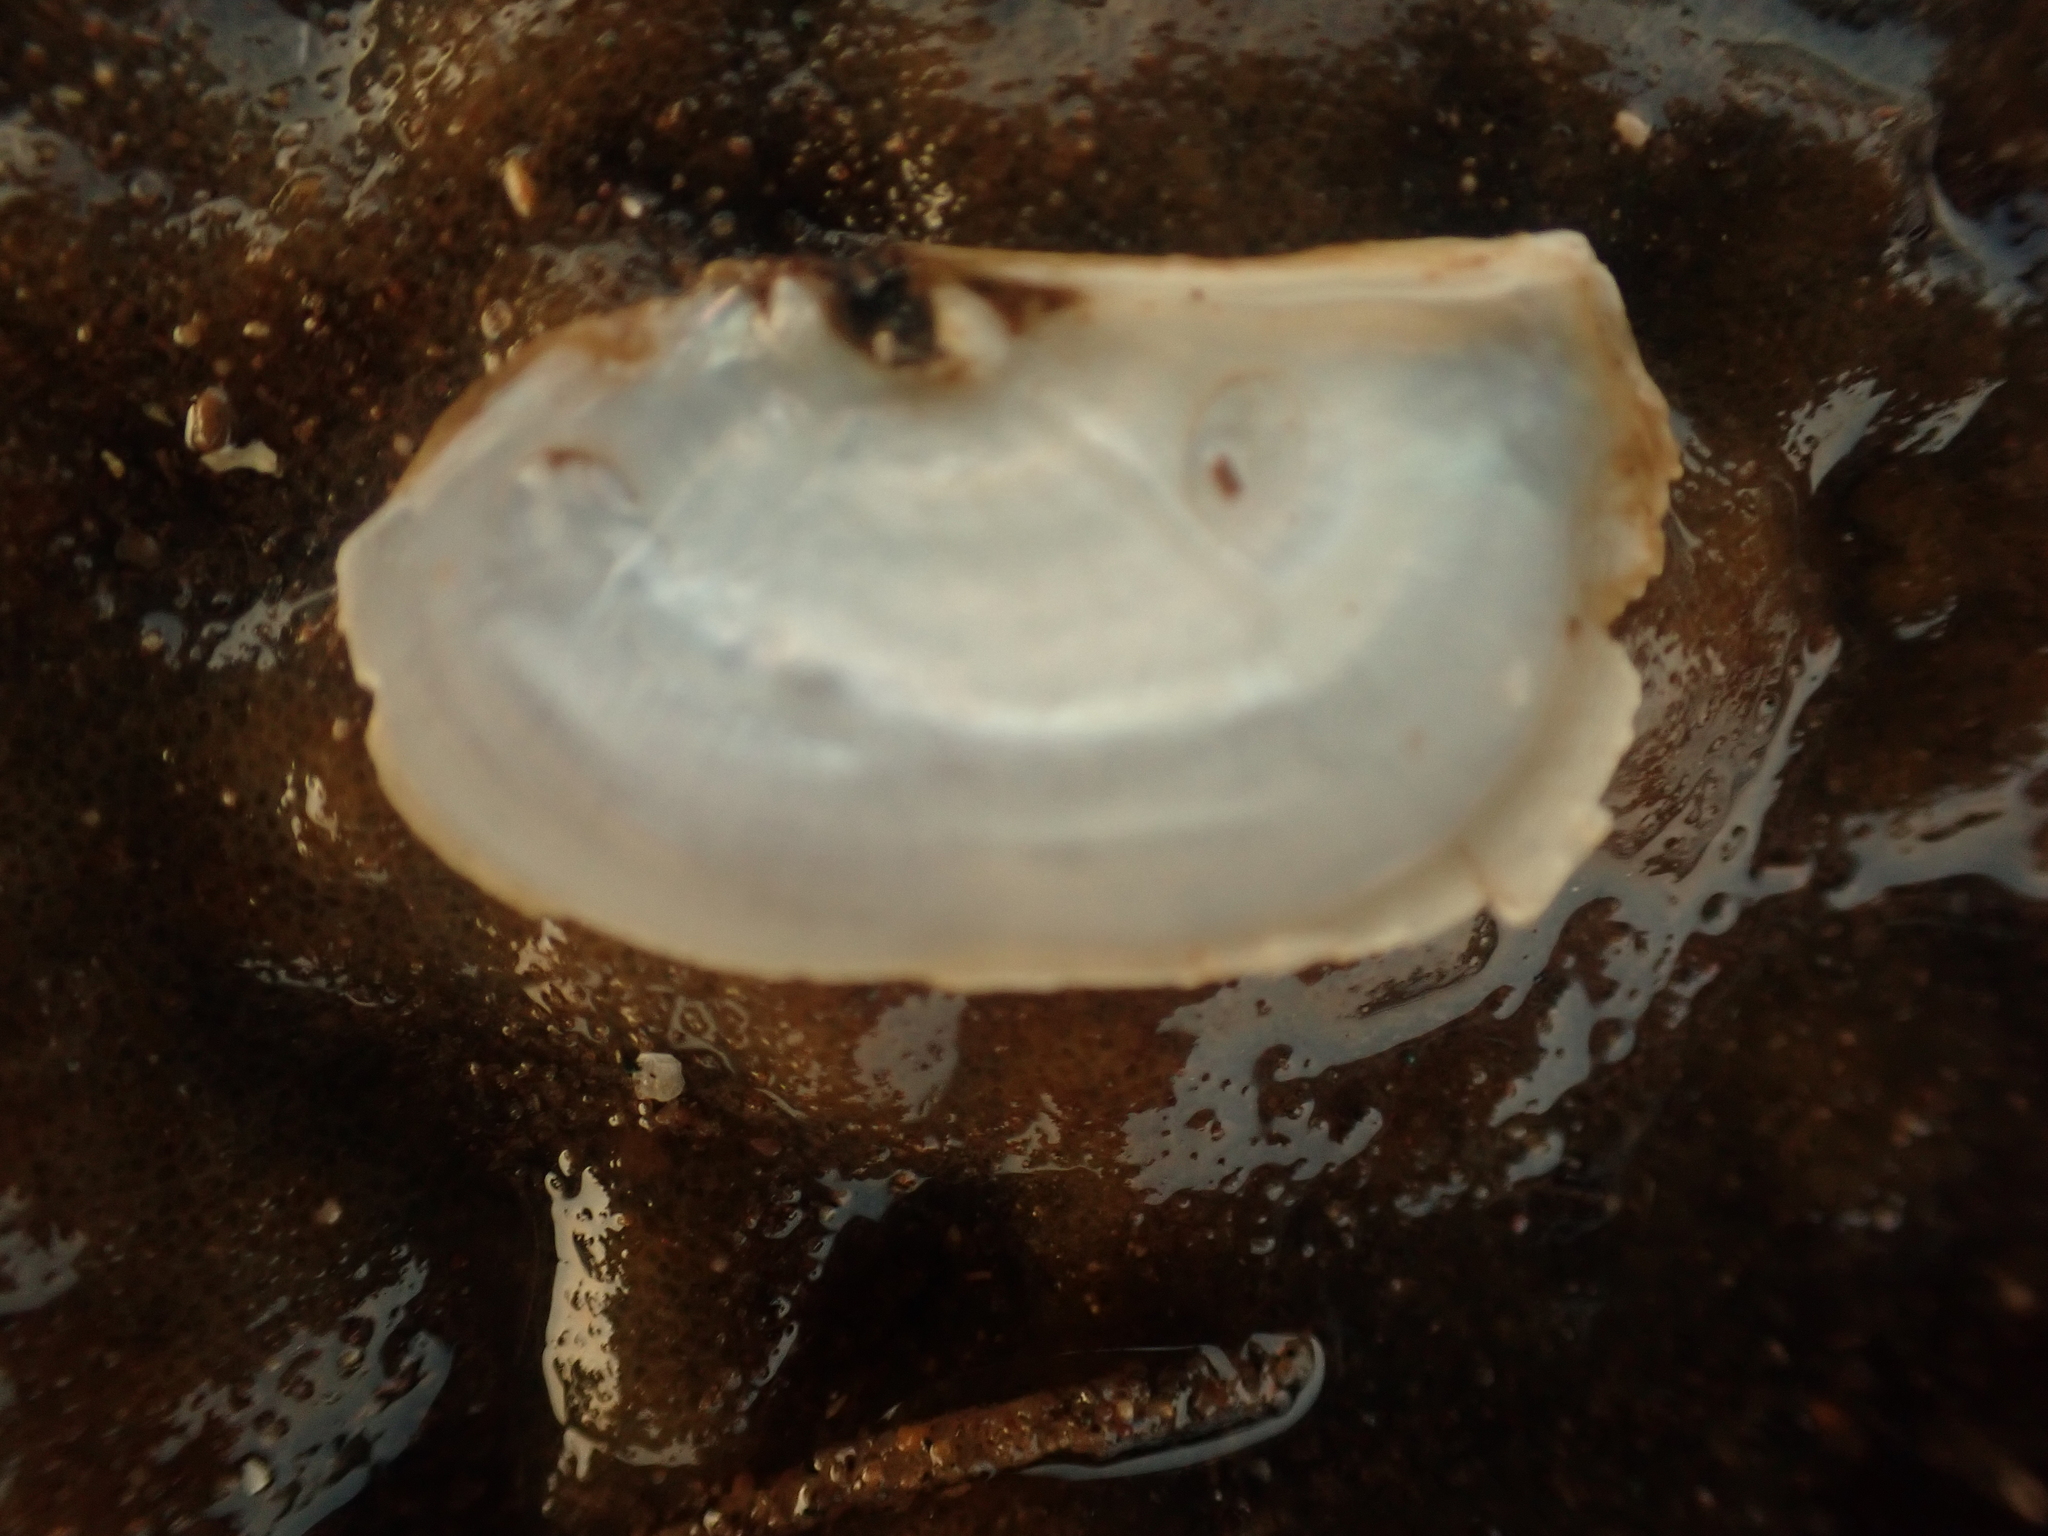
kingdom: Animalia
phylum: Mollusca
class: Bivalvia
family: Pandoridae
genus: Pandora
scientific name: Pandora gouldiana
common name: Rounded pandora
